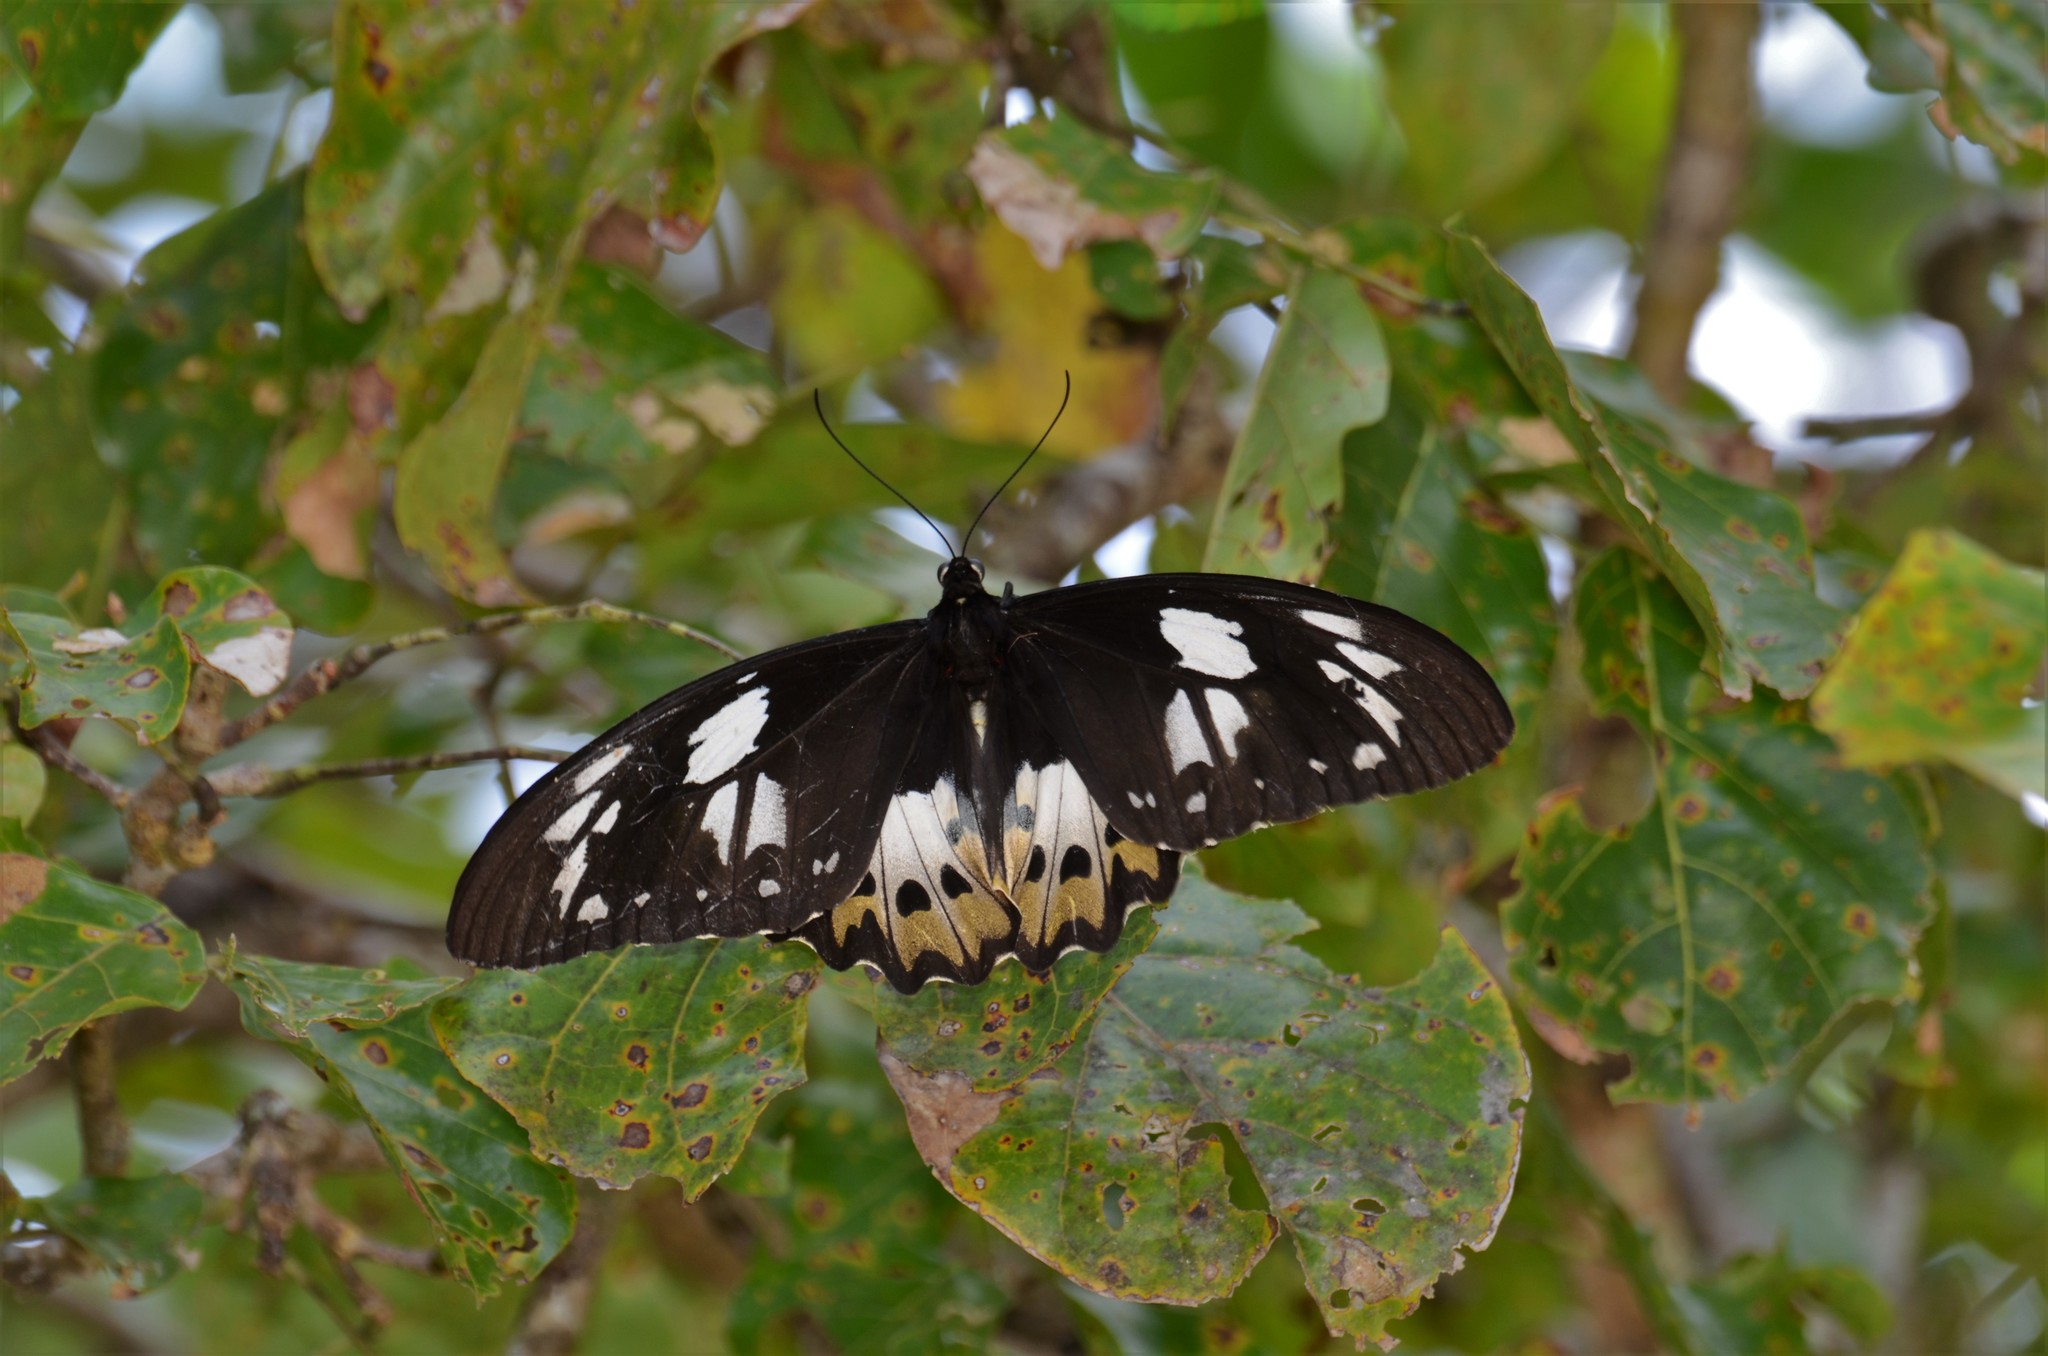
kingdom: Animalia
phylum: Arthropoda
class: Insecta
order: Lepidoptera
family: Papilionidae
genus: Ornithoptera
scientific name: Ornithoptera priamus
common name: Cape york birdwing
